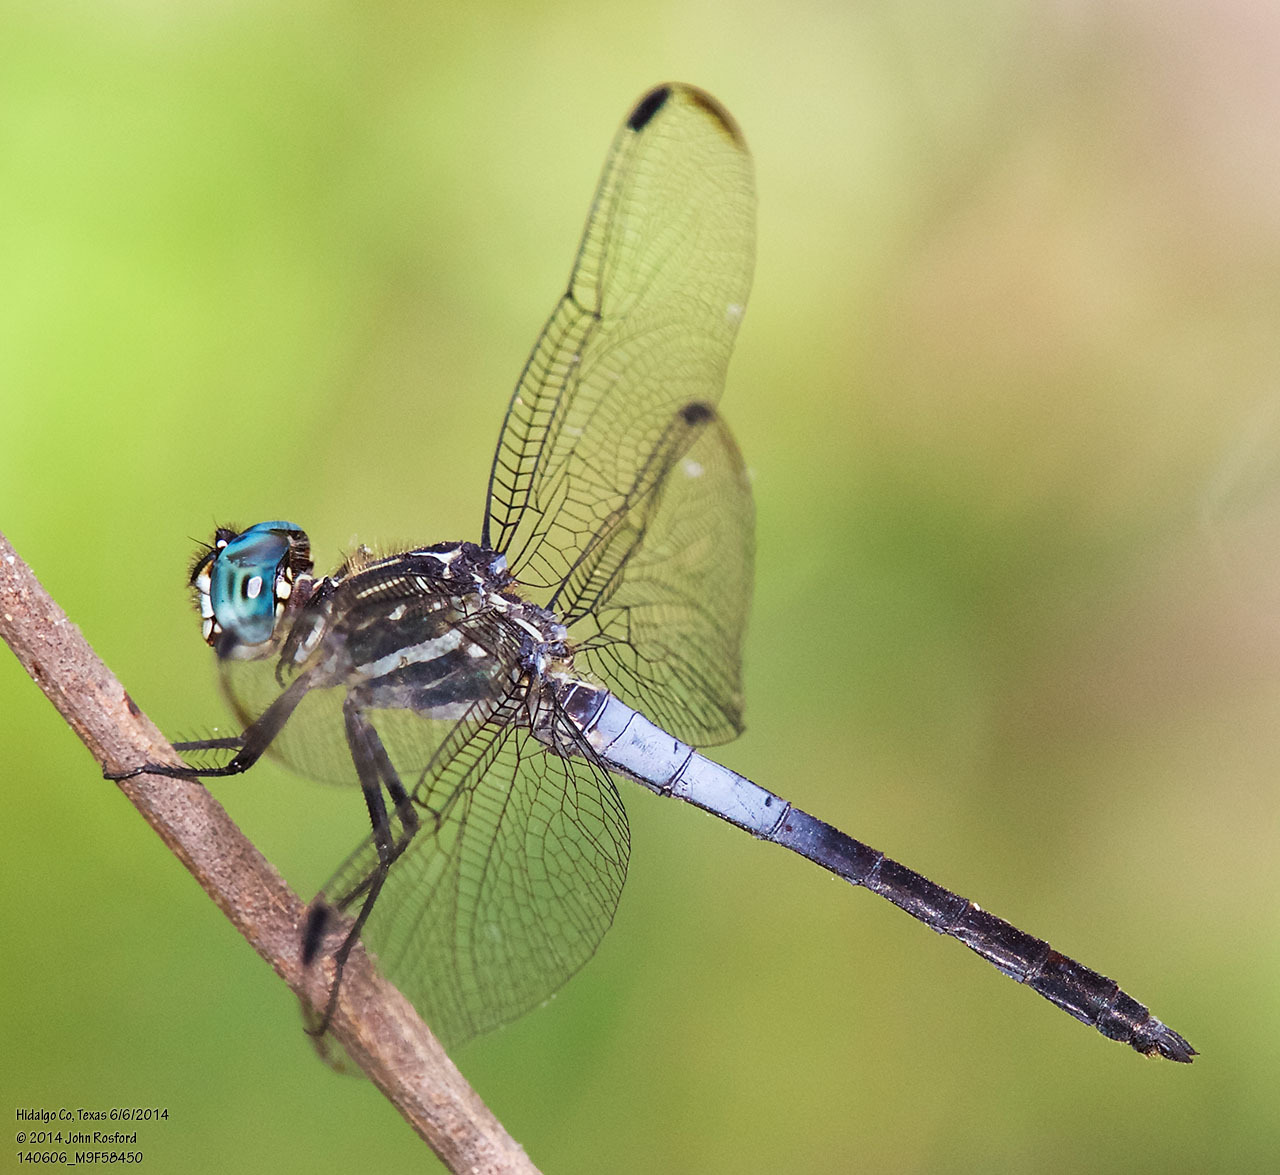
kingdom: Animalia
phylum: Arthropoda
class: Insecta
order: Odonata
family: Libellulidae
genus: Cannaphila
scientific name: Cannaphila insularis
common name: Gray-waisted skimmer
